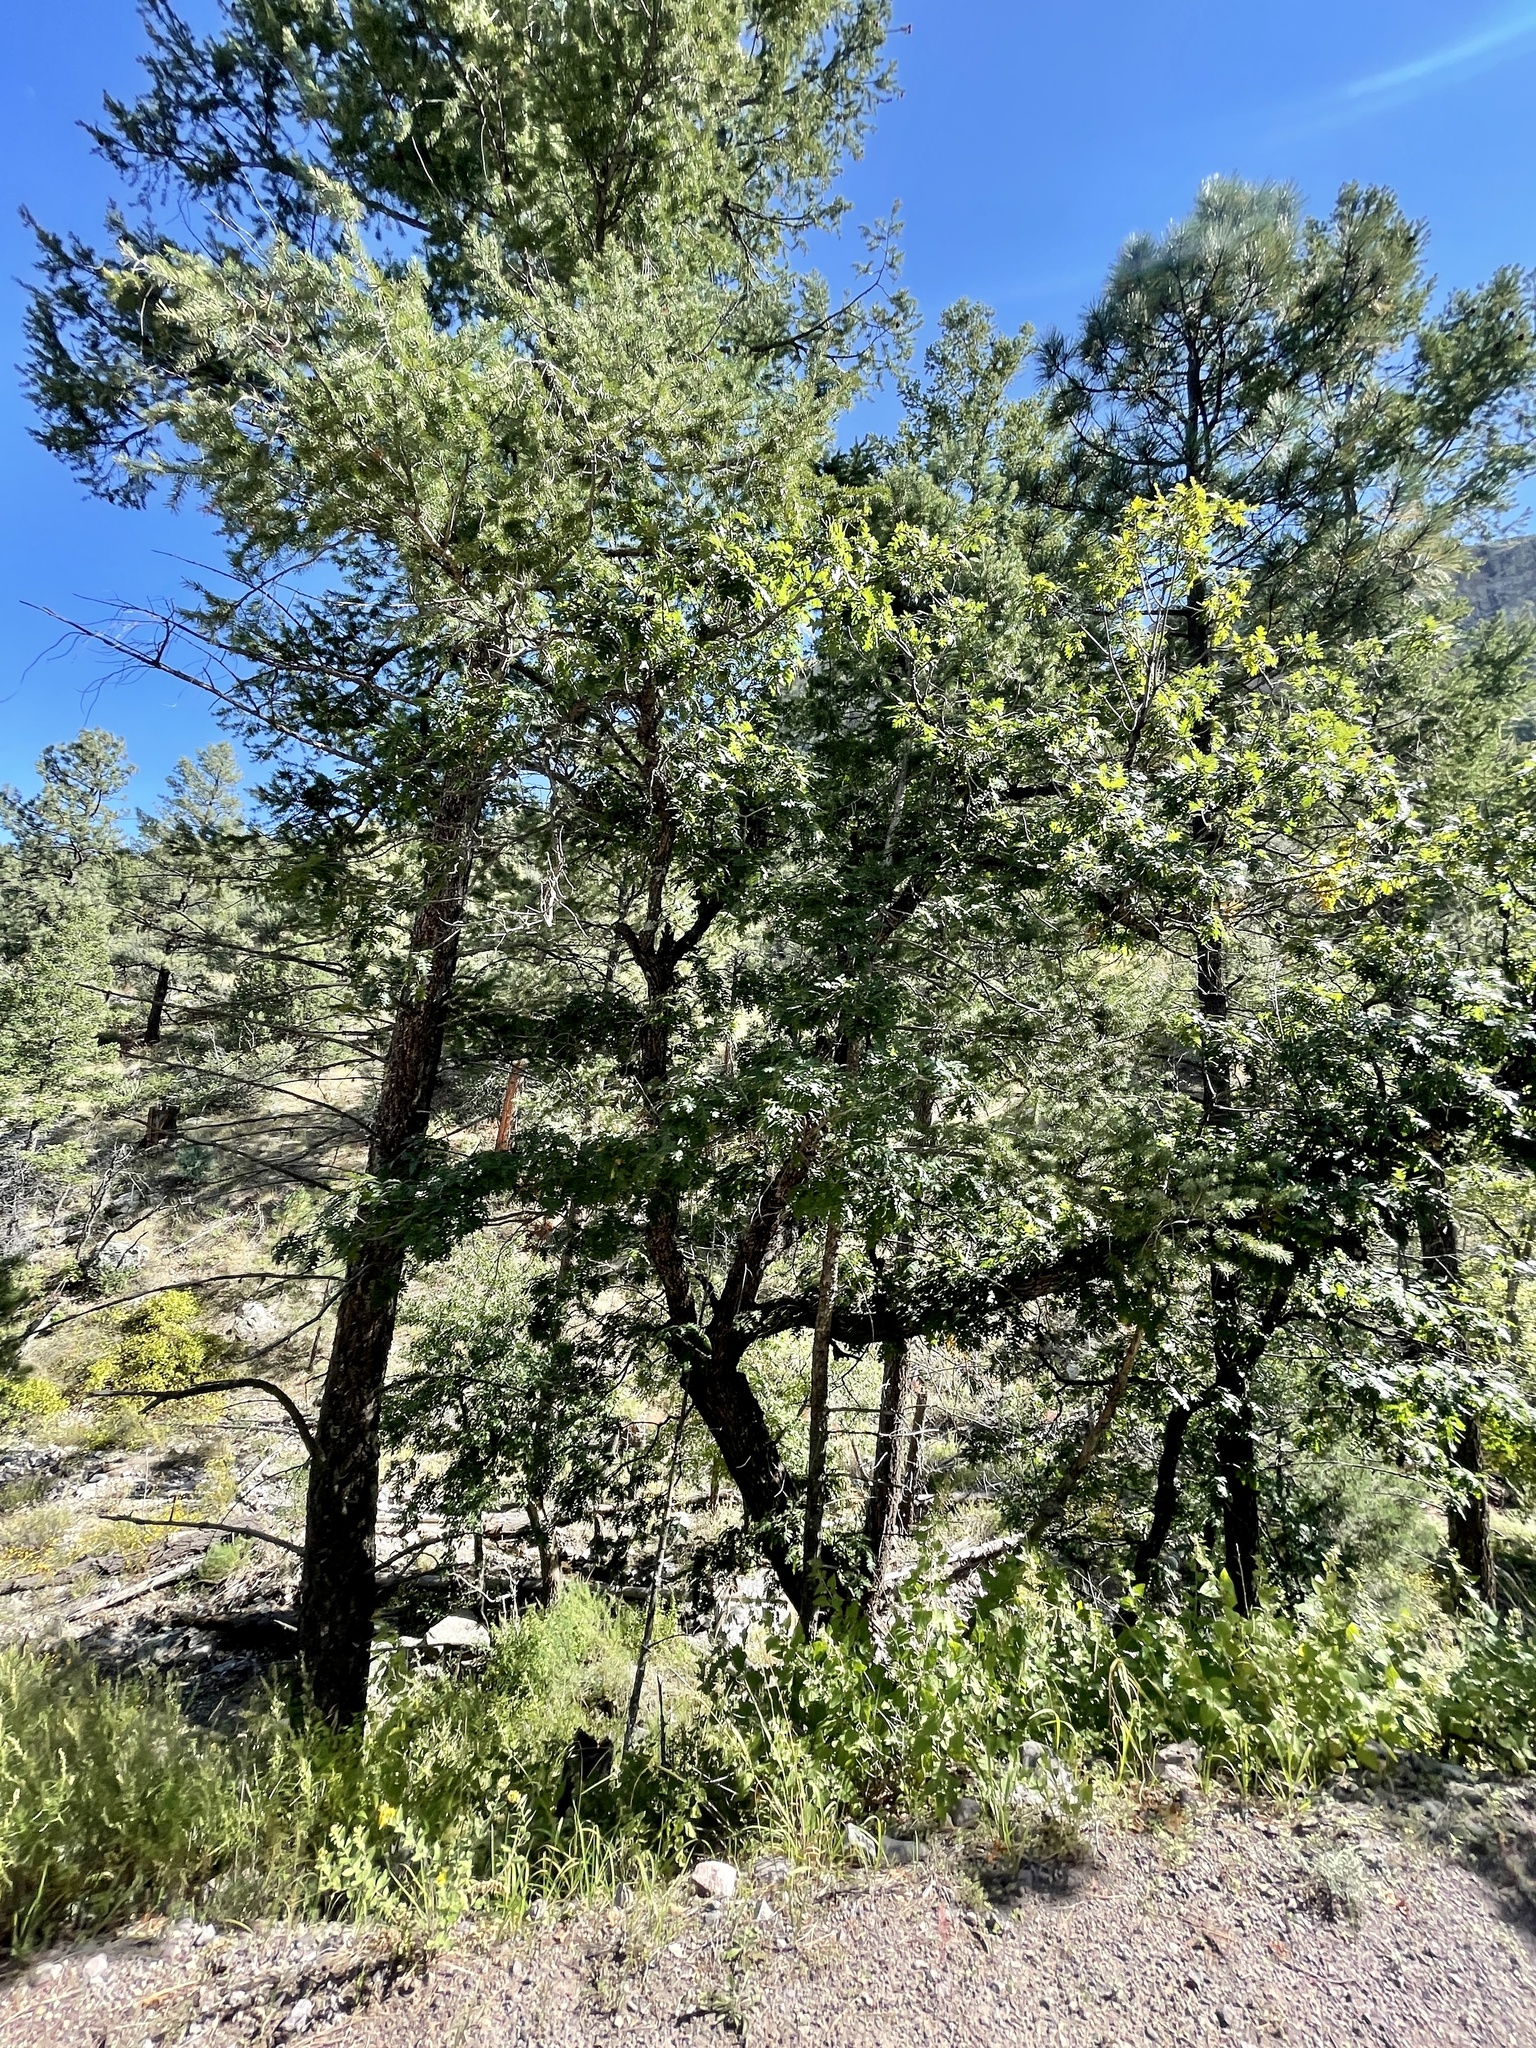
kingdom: Plantae
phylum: Tracheophyta
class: Magnoliopsida
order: Fagales
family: Fagaceae
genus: Quercus
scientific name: Quercus gambelii
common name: Gambel oak
